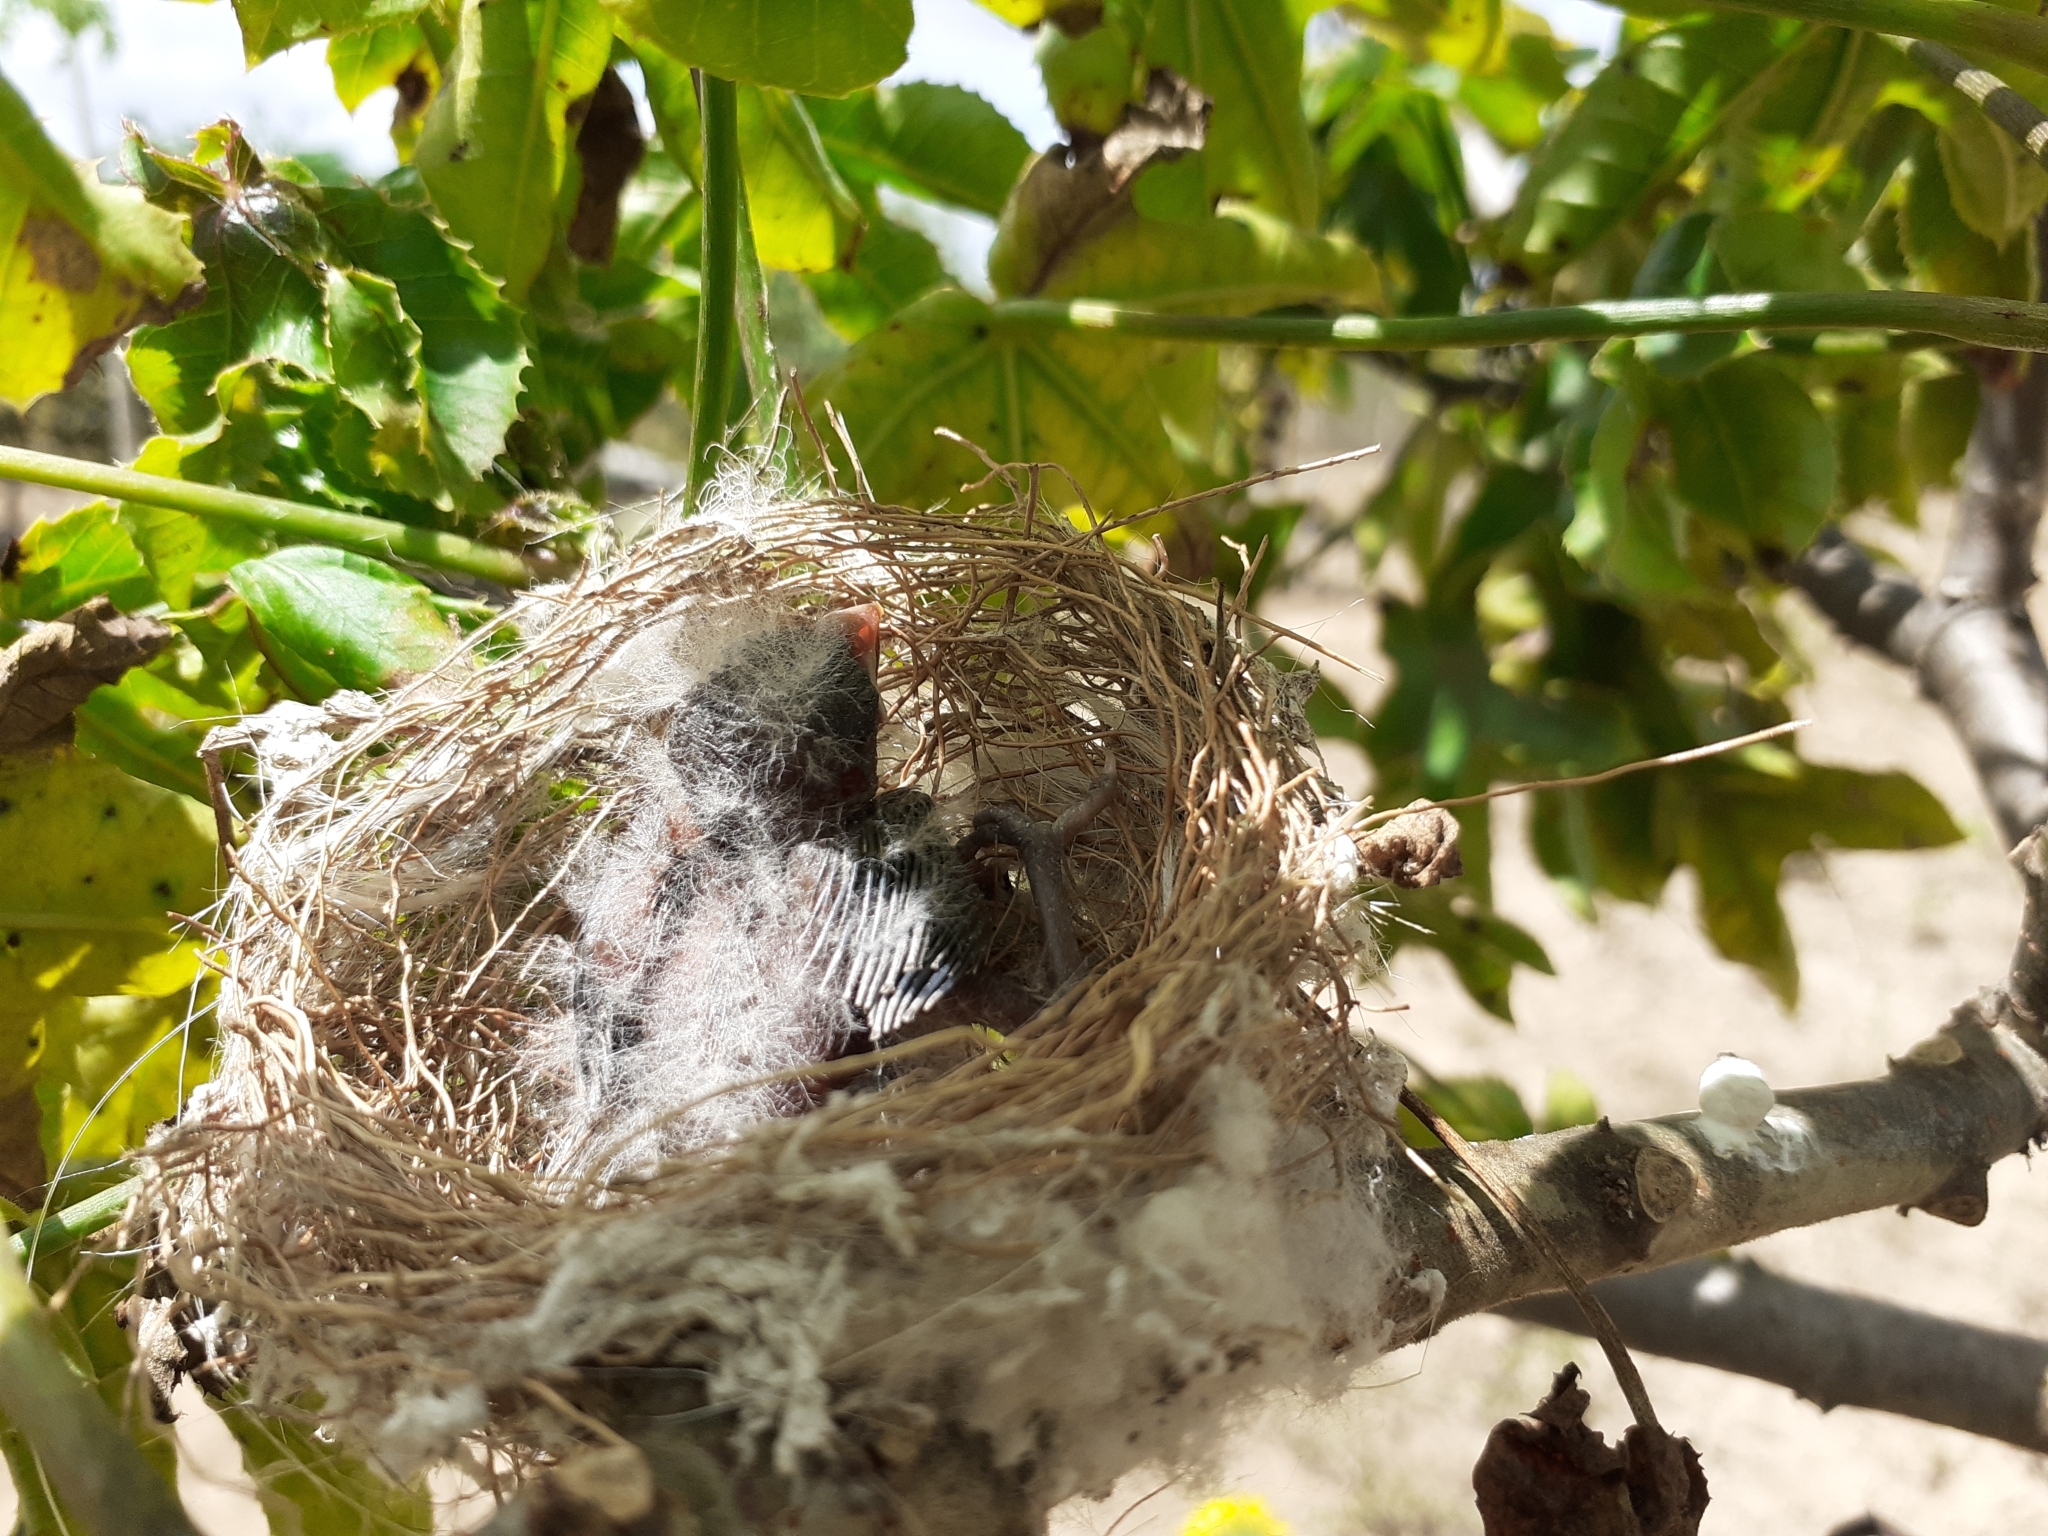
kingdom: Animalia
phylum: Chordata
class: Aves
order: Passeriformes
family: Thraupidae
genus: Sporophila
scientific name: Sporophila albogularis
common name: White-throated seedeater
